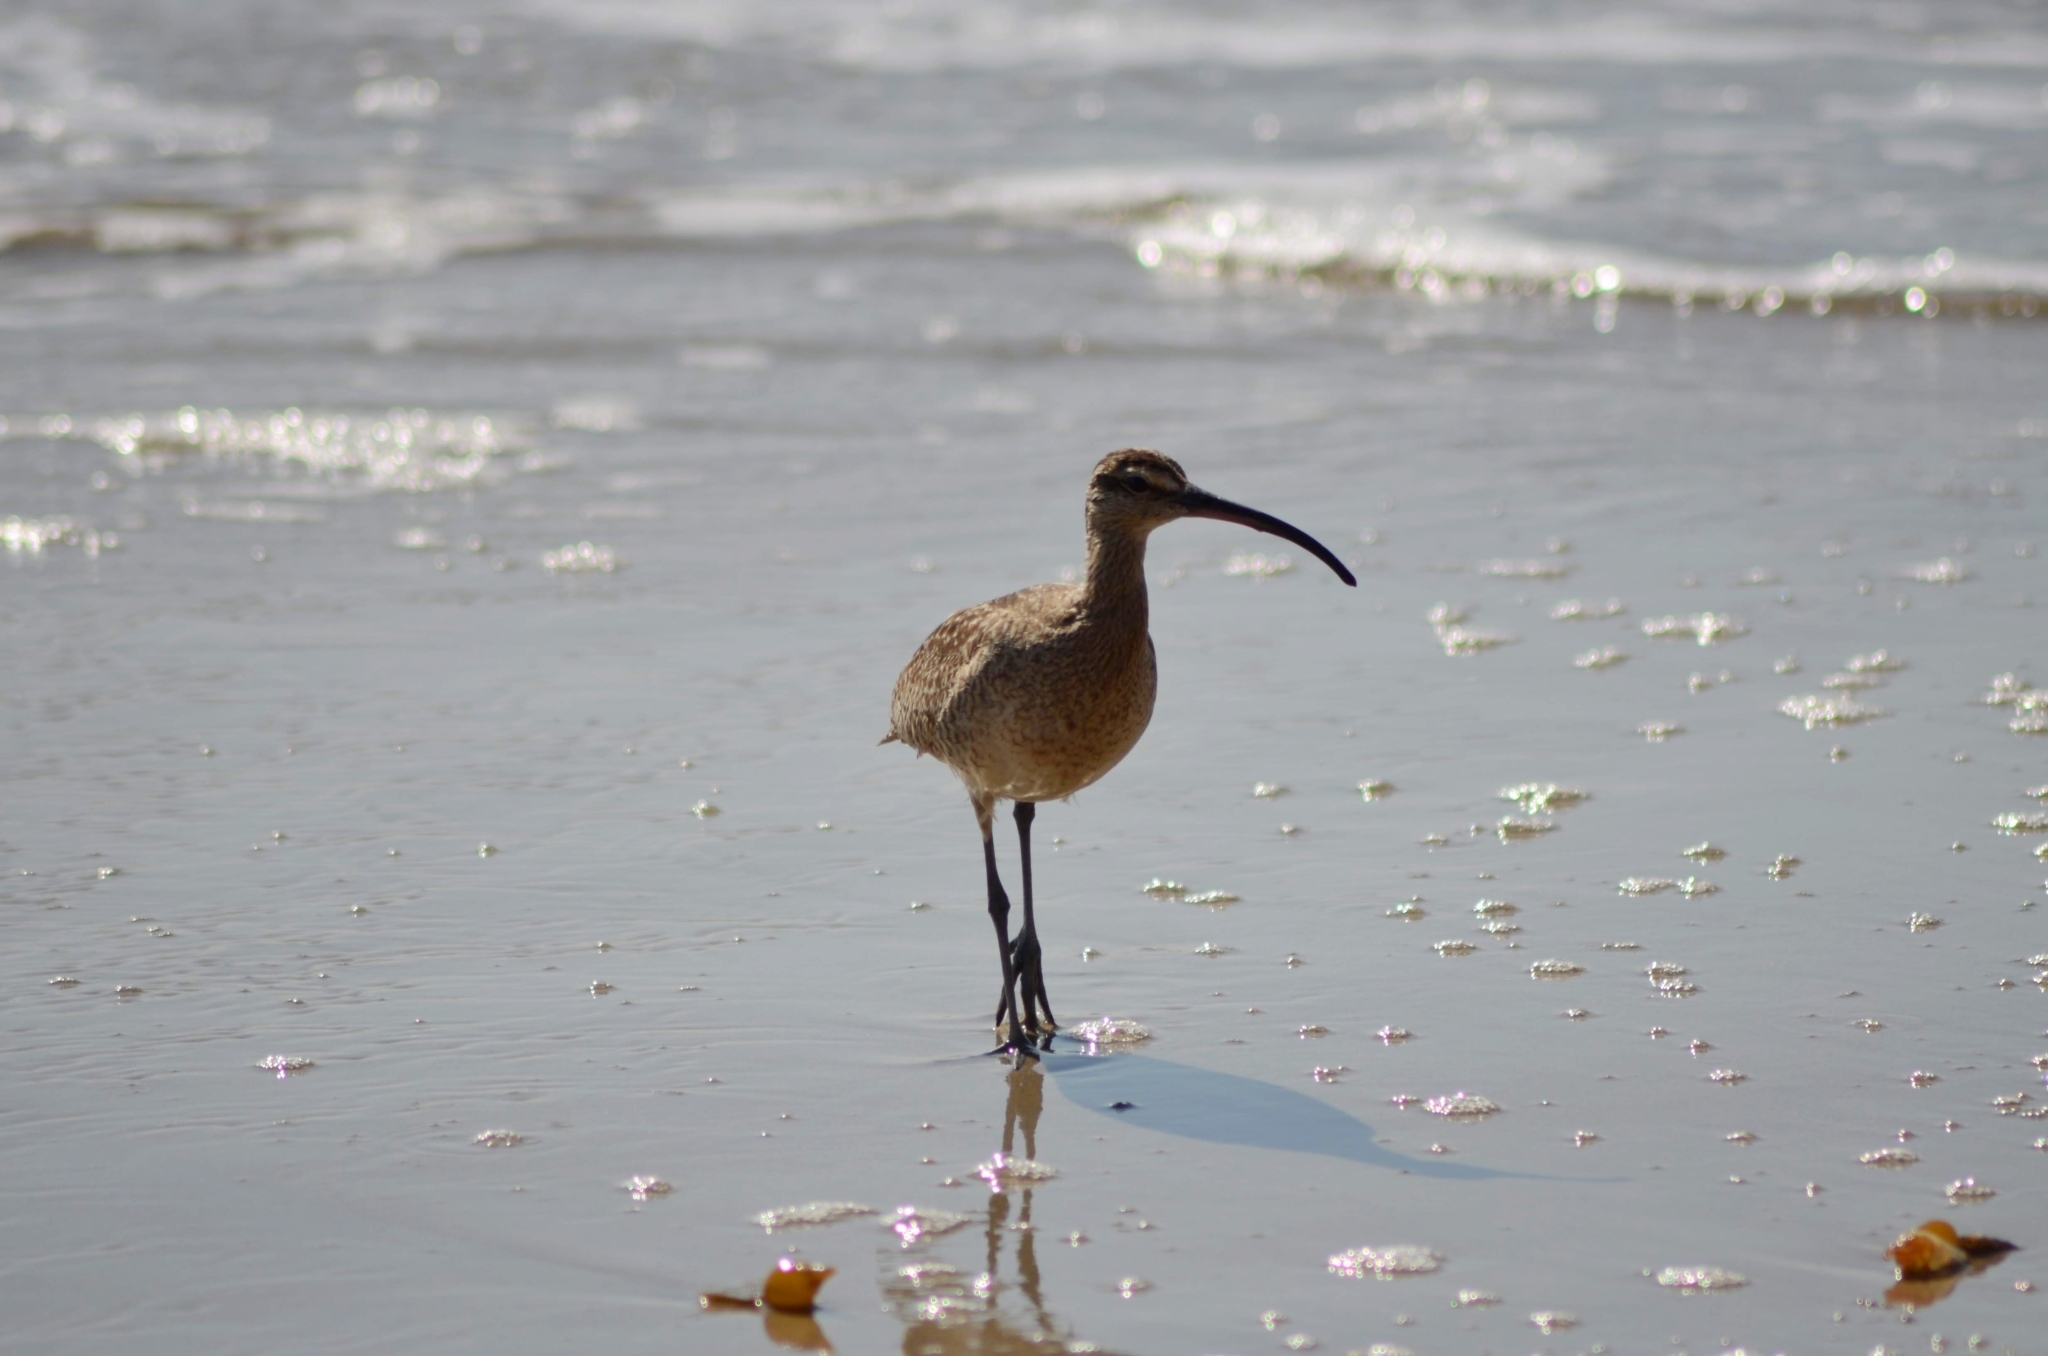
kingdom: Animalia
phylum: Chordata
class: Aves
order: Charadriiformes
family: Scolopacidae
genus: Numenius
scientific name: Numenius phaeopus
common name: Whimbrel
